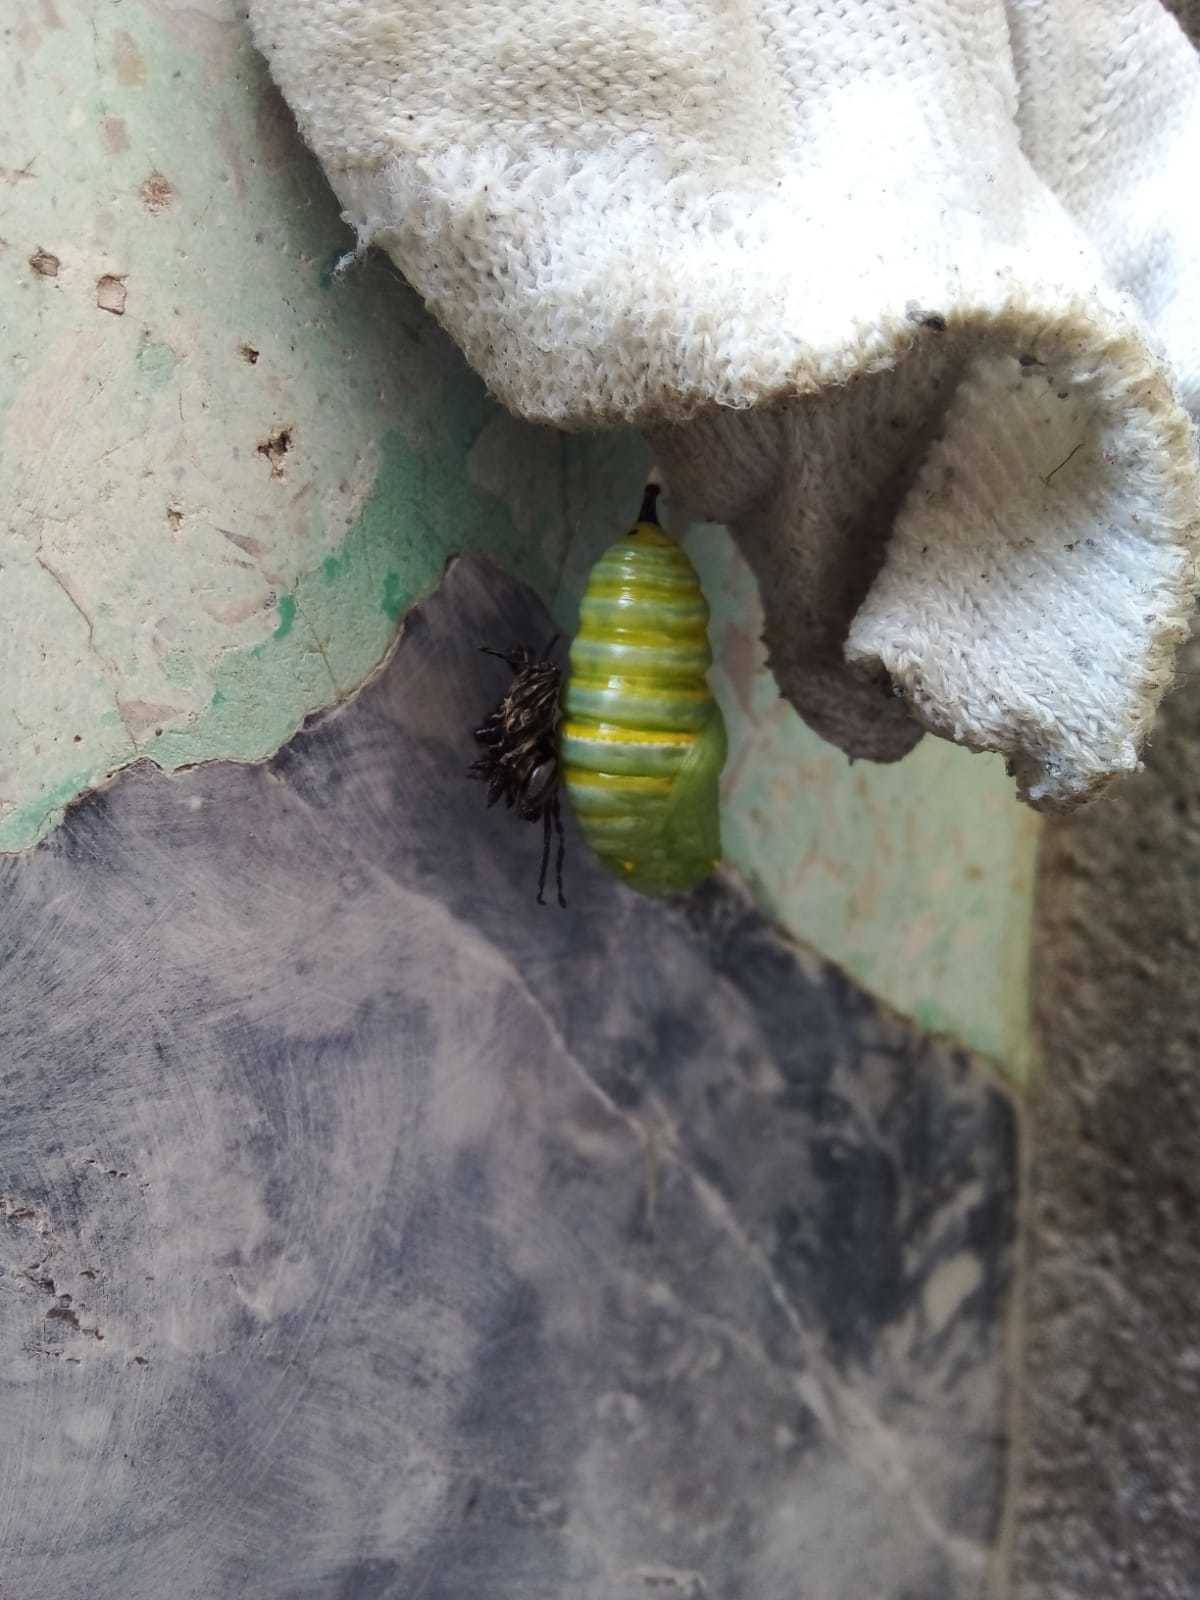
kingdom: Animalia
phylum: Arthropoda
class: Insecta
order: Lepidoptera
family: Nymphalidae
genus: Danaus
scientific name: Danaus plexippus
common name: Monarch
